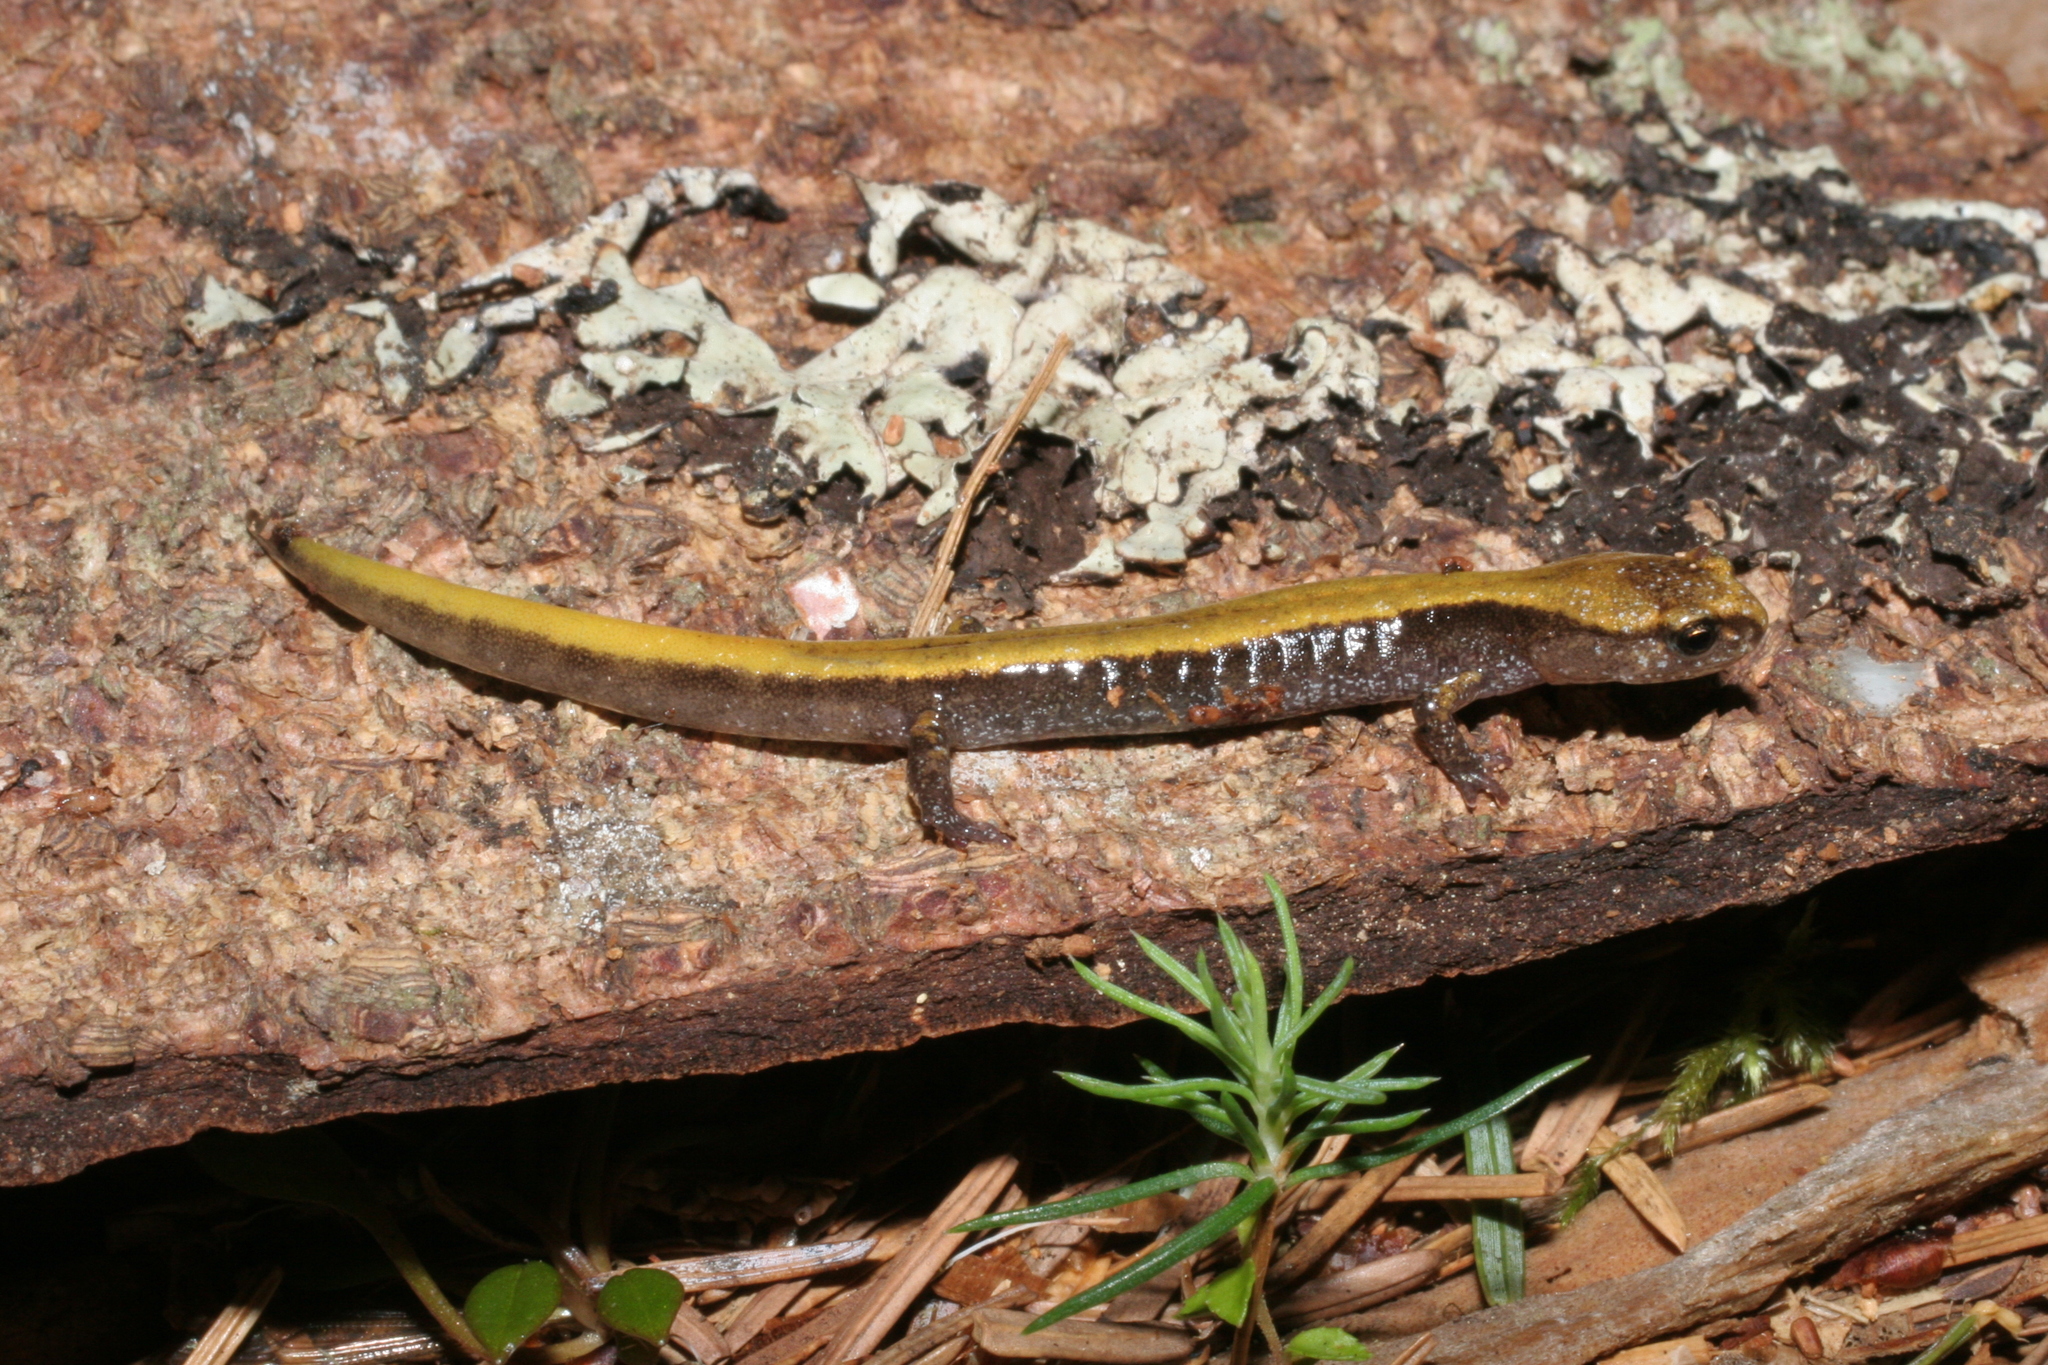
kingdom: Animalia
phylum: Chordata
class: Amphibia
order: Caudata
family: Plethodontidae
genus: Plethodon
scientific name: Plethodon vehiculum
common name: Western red-backed salamander
